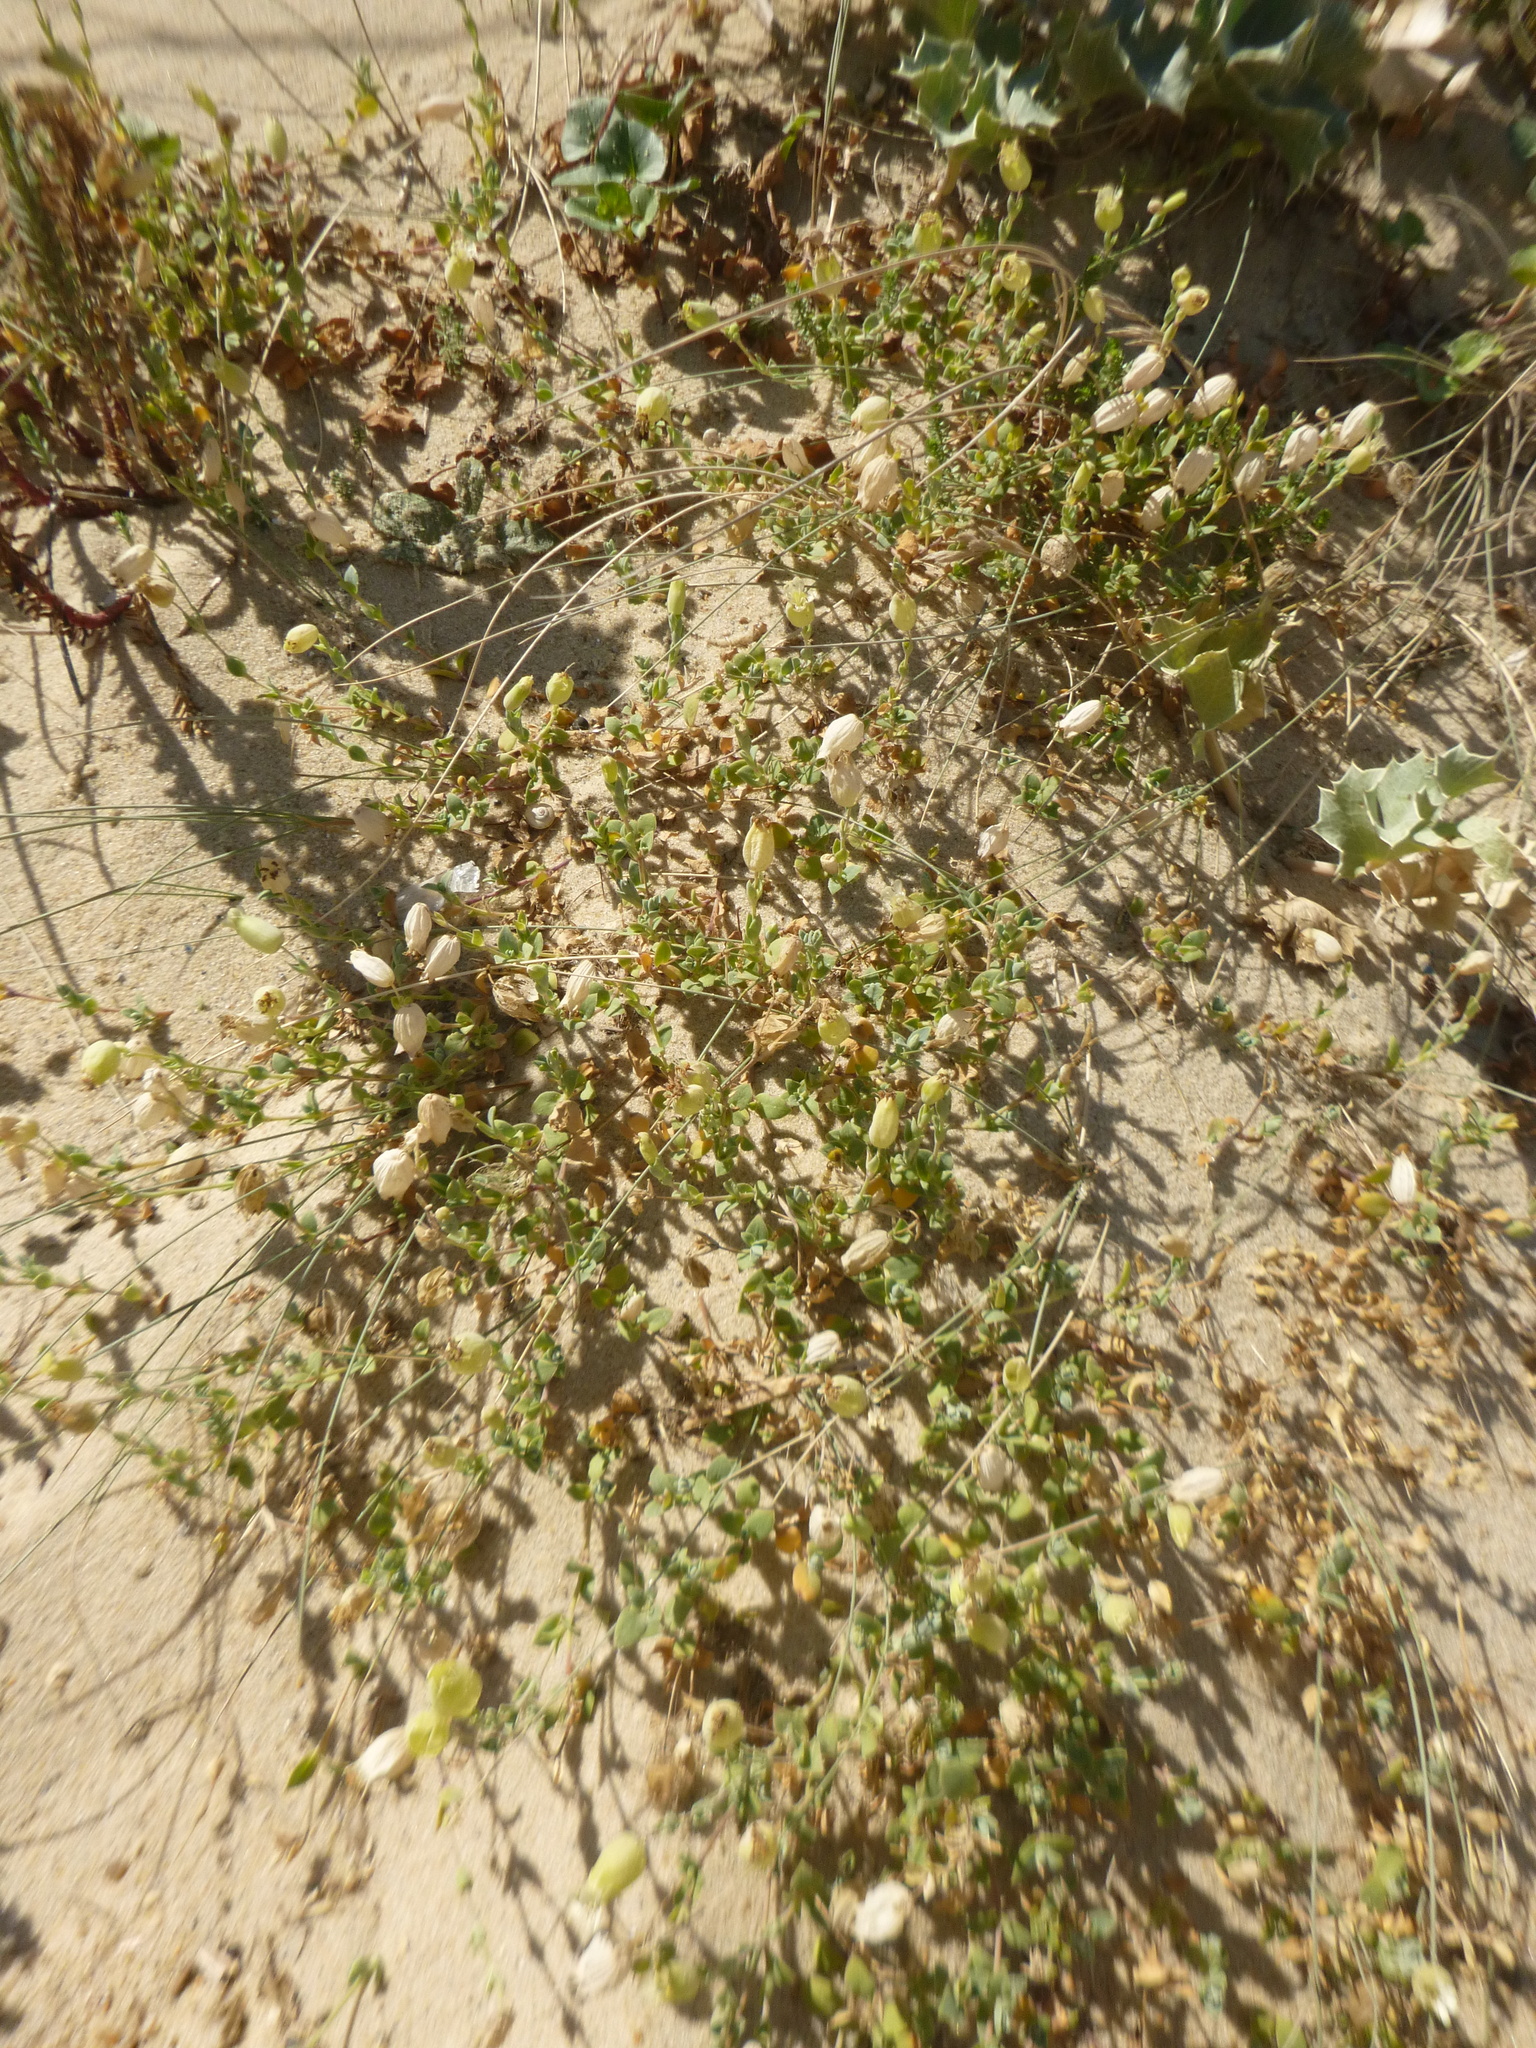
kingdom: Plantae
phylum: Tracheophyta
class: Magnoliopsida
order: Caryophyllales
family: Caryophyllaceae
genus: Silene
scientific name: Silene uniflora
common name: Sea campion
